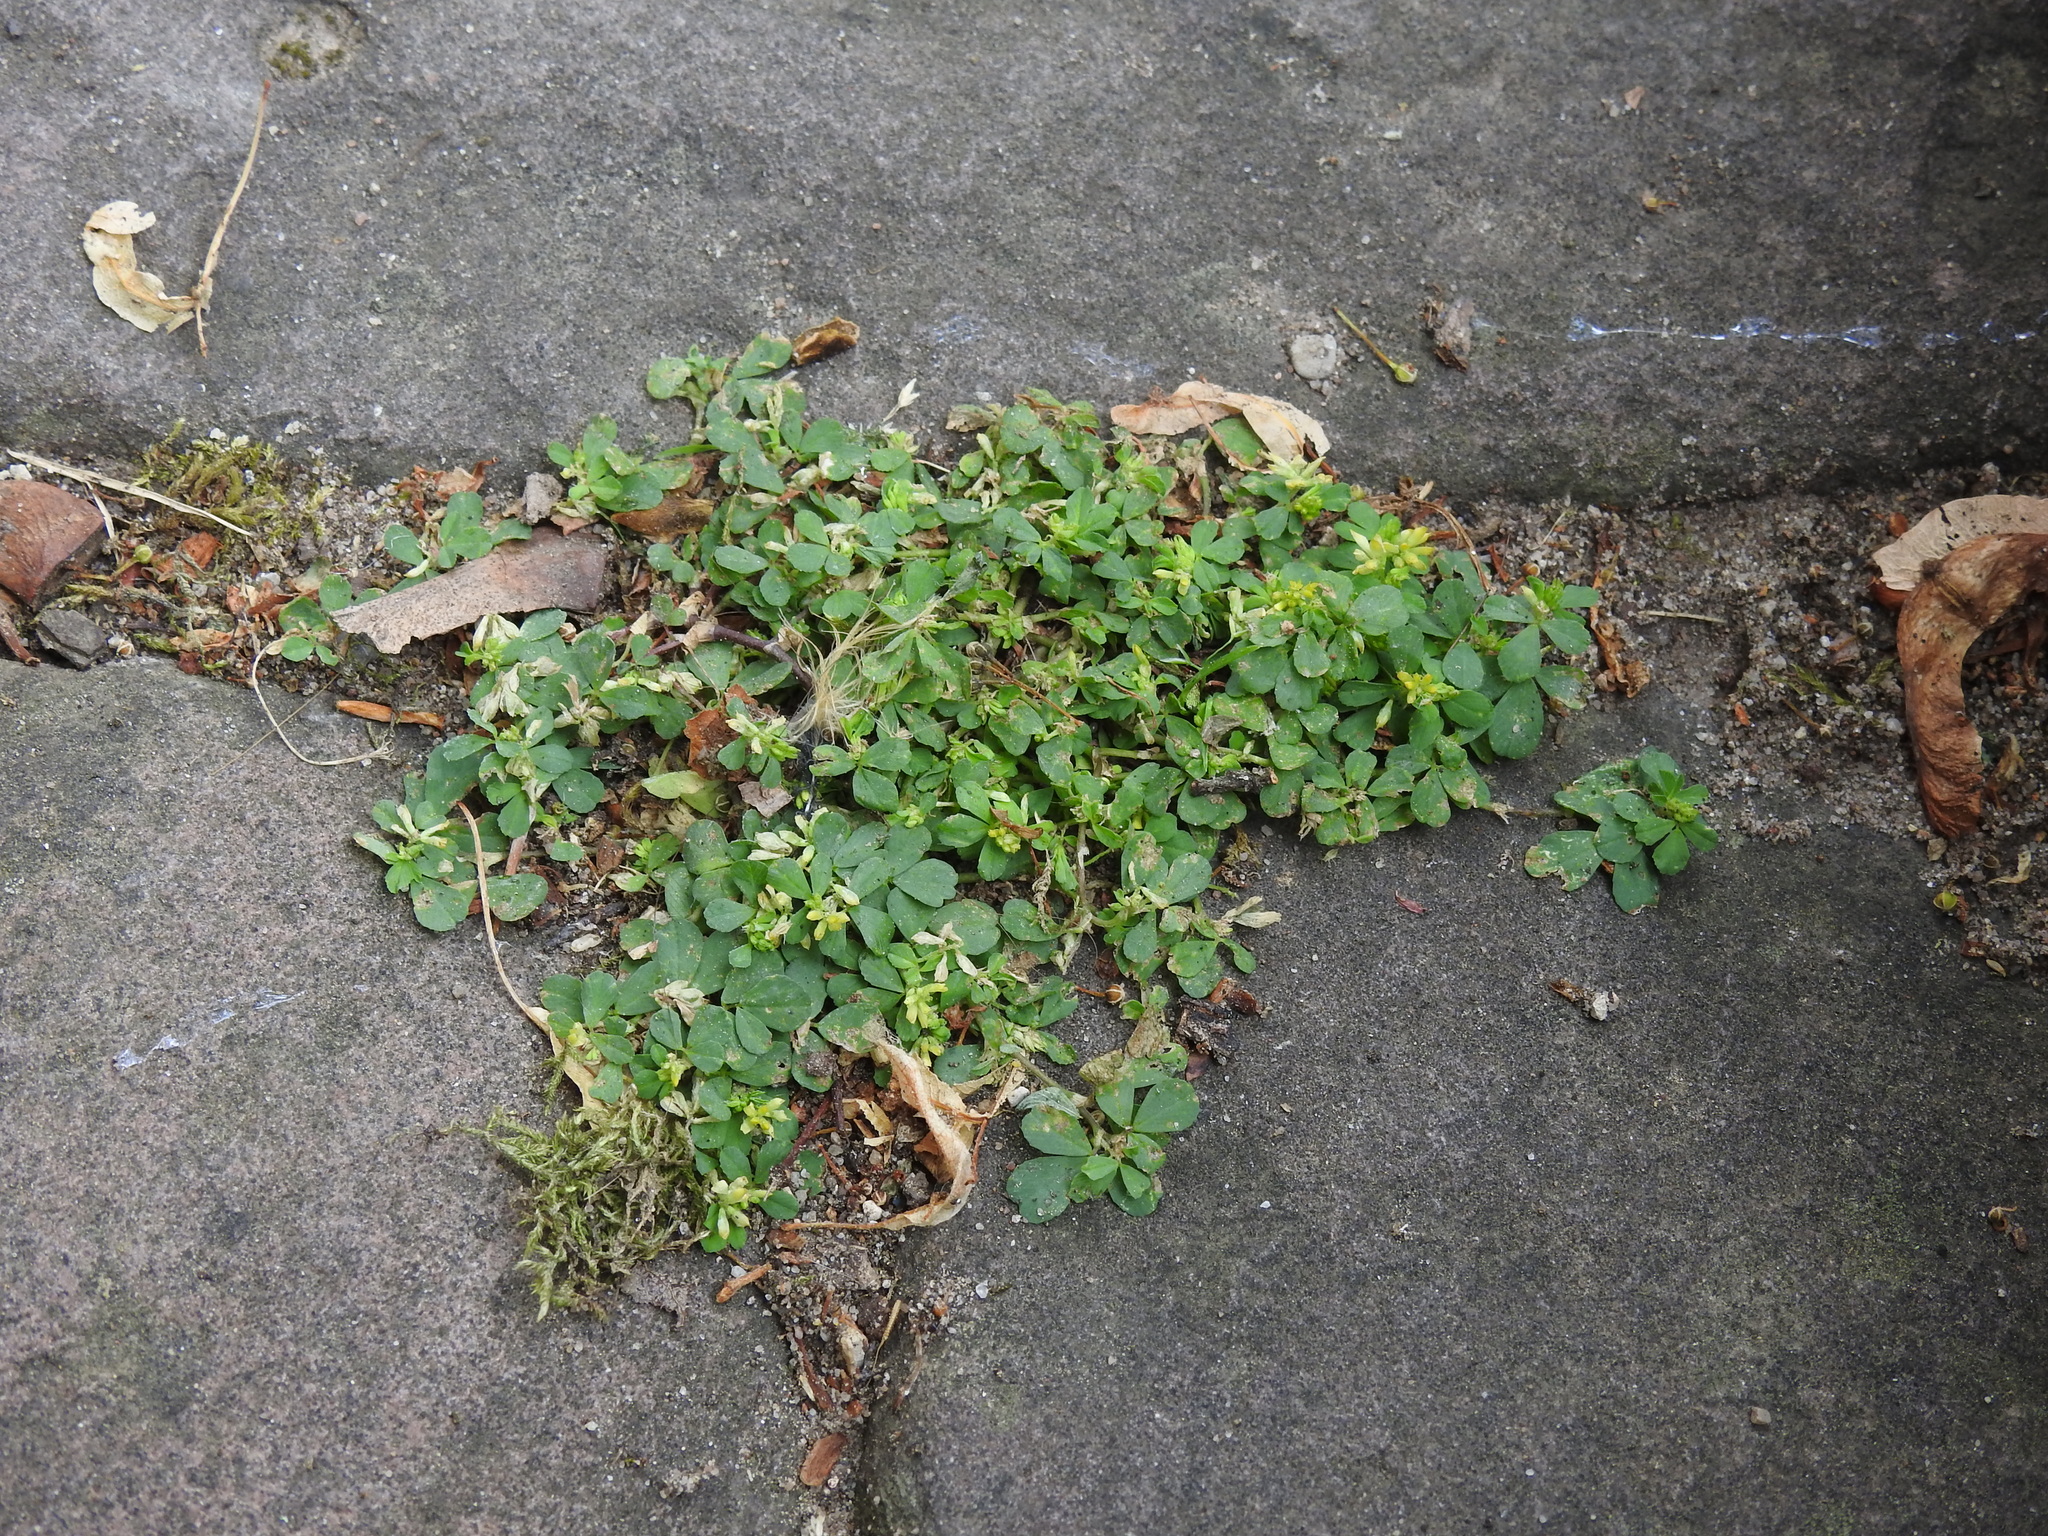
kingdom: Plantae
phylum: Tracheophyta
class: Magnoliopsida
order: Fabales
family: Fabaceae
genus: Trifolium
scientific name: Trifolium dubium
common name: Suckling clover
